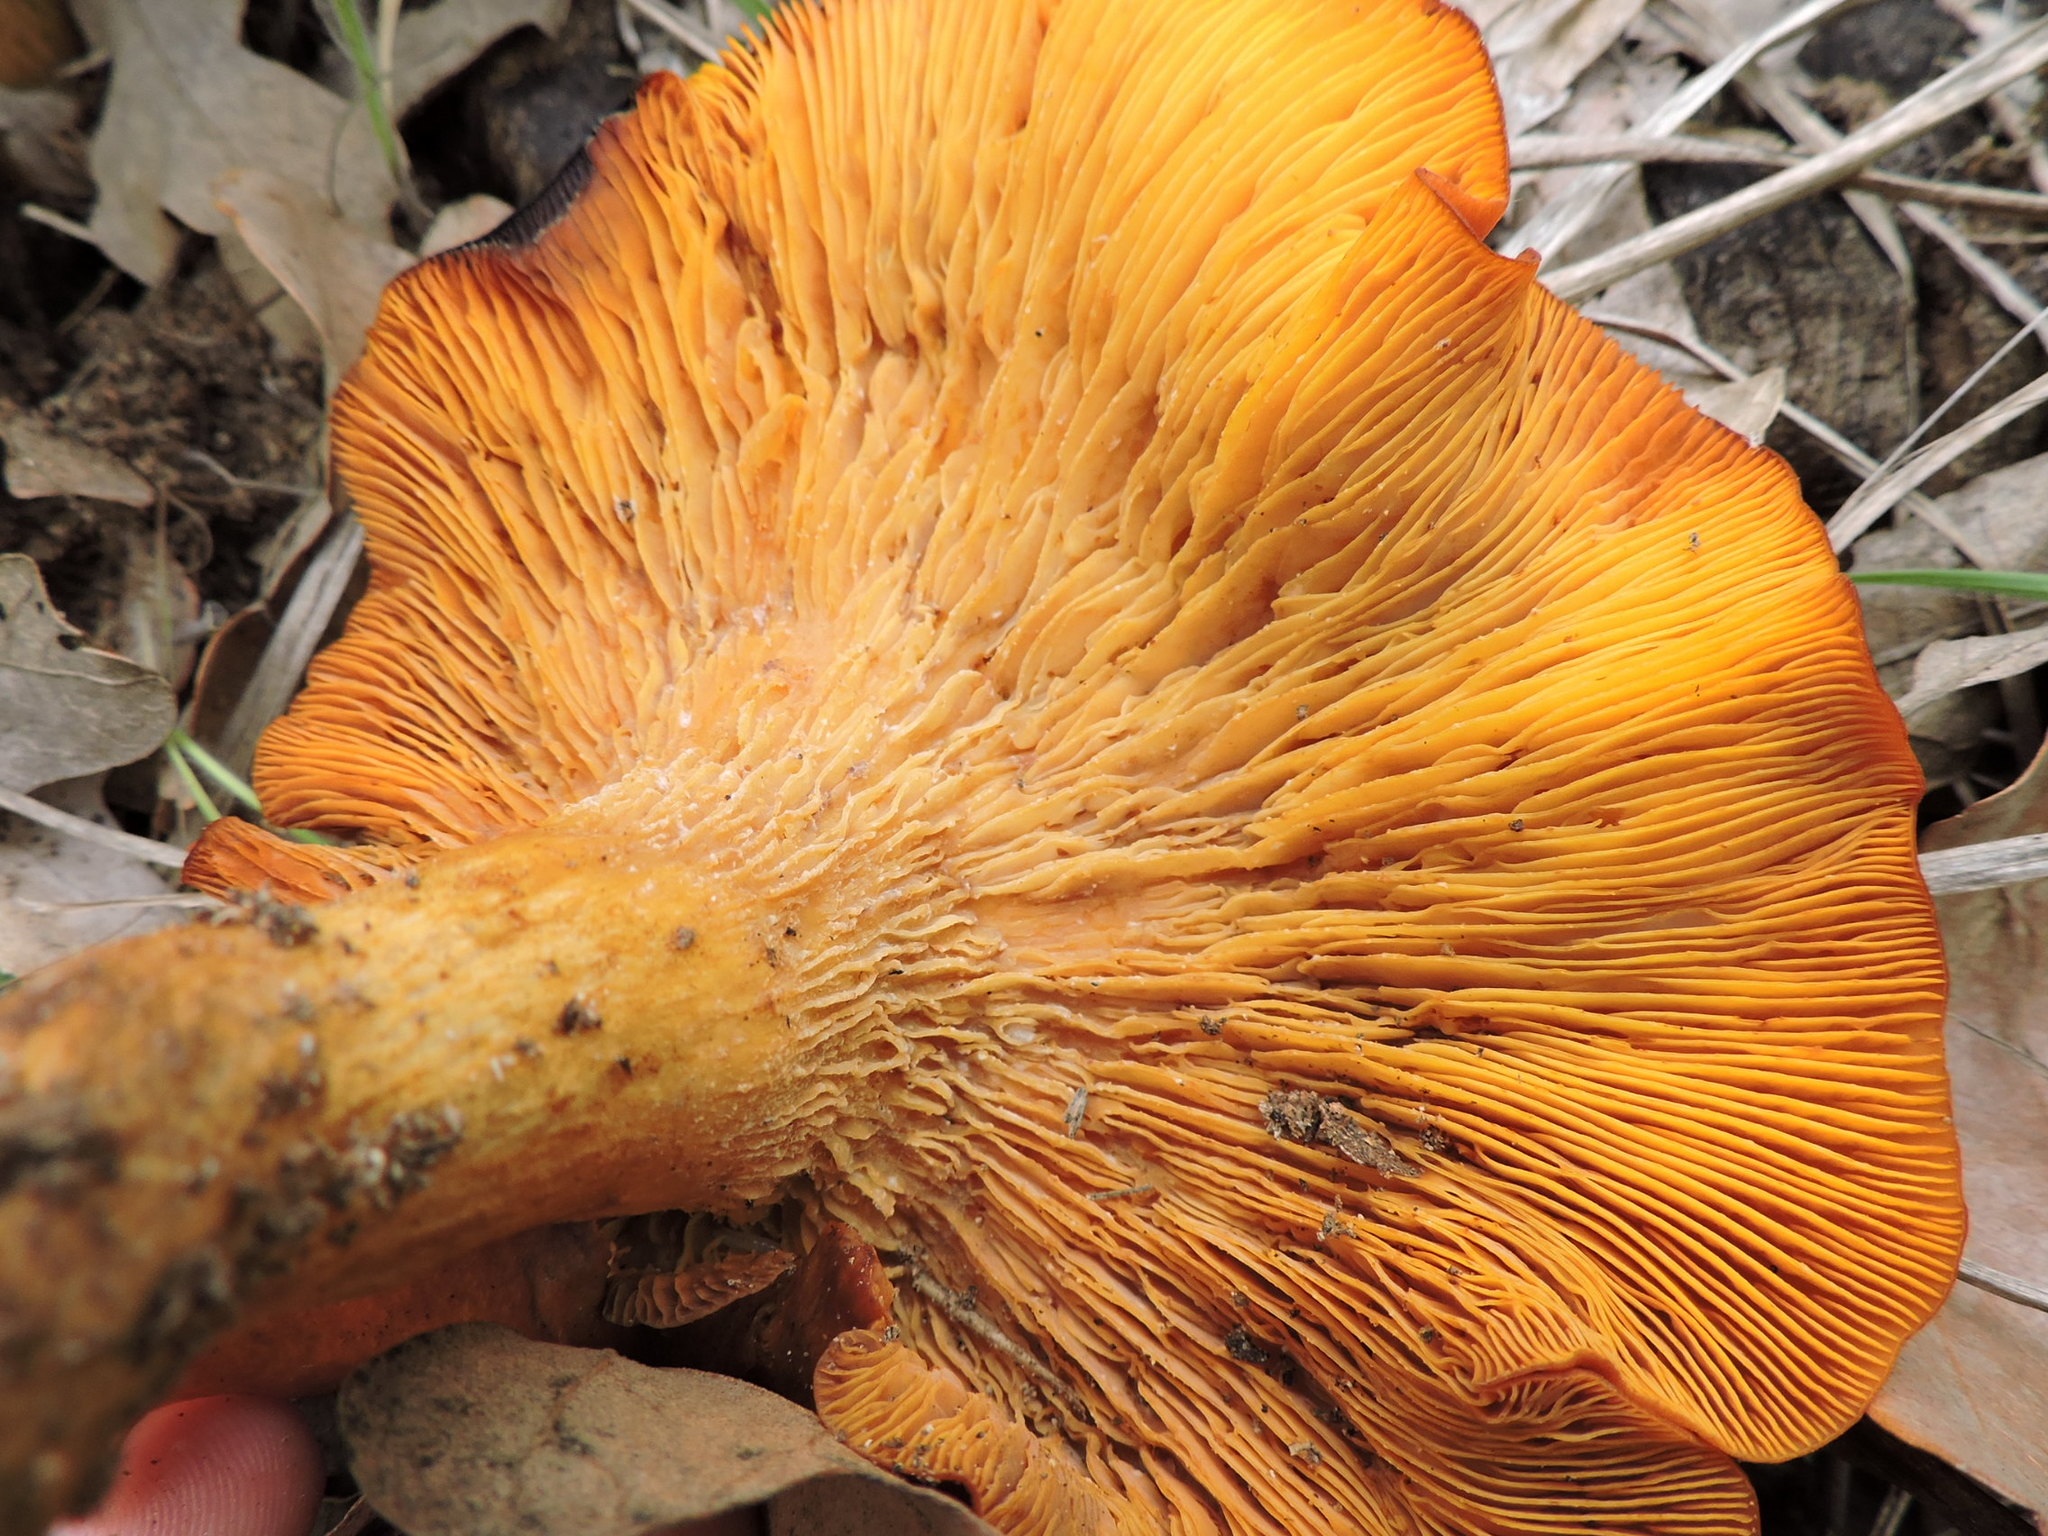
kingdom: Fungi
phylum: Basidiomycota
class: Agaricomycetes
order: Agaricales
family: Omphalotaceae
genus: Omphalotus
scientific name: Omphalotus illudens
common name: Jack o lantern
